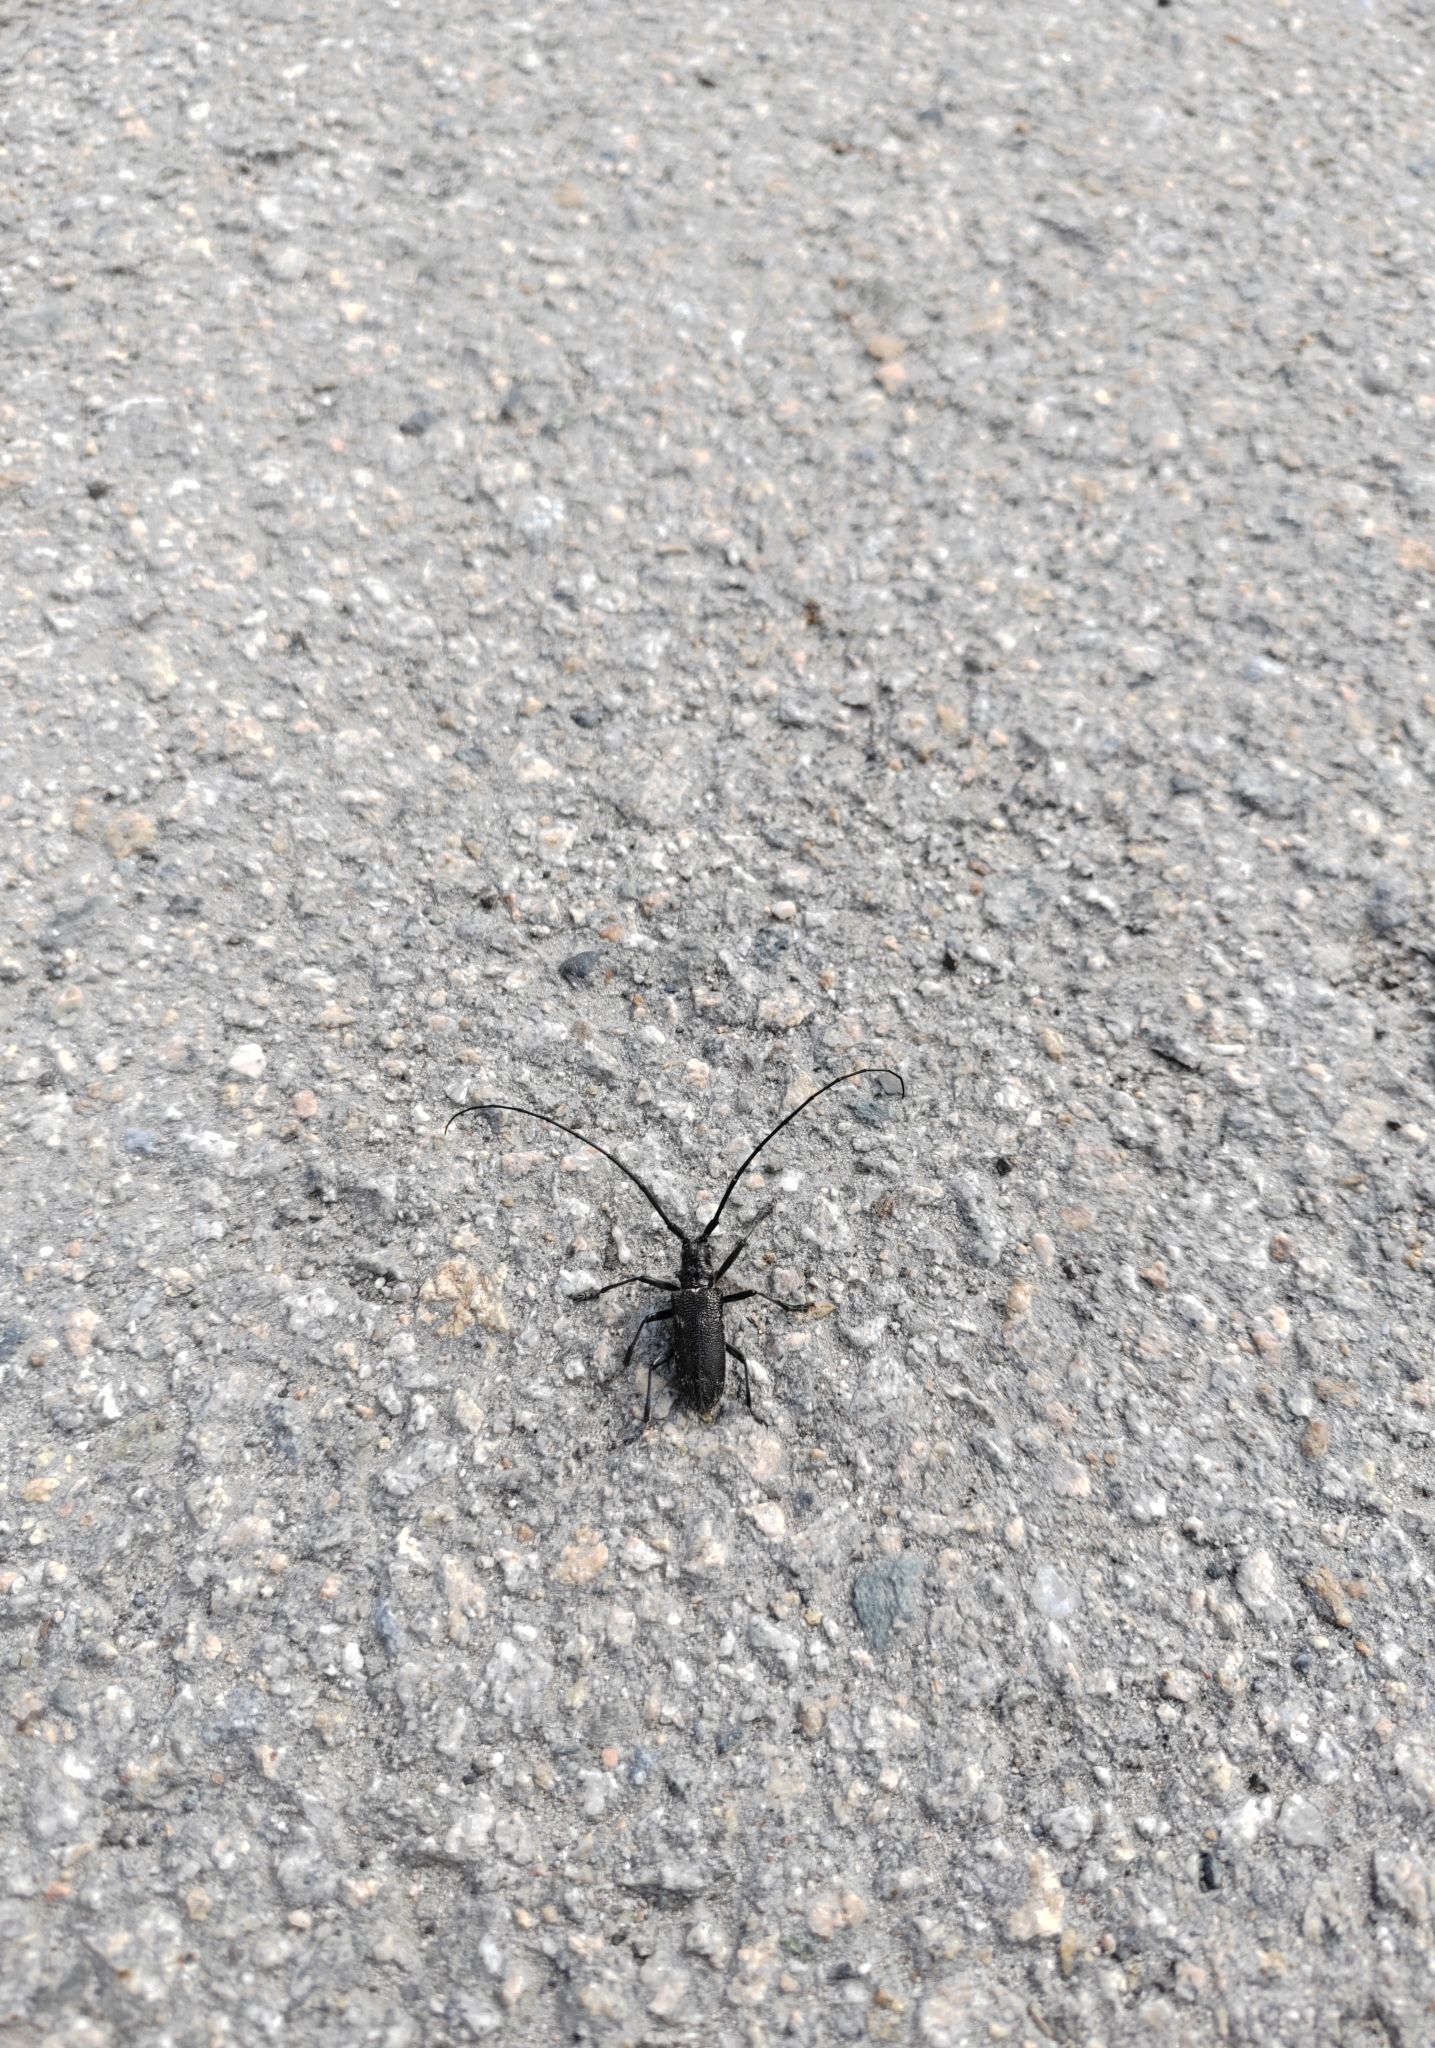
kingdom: Animalia
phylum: Arthropoda
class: Insecta
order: Coleoptera
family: Cerambycidae
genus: Monochamus
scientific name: Monochamus sutor
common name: Pine sawyer
